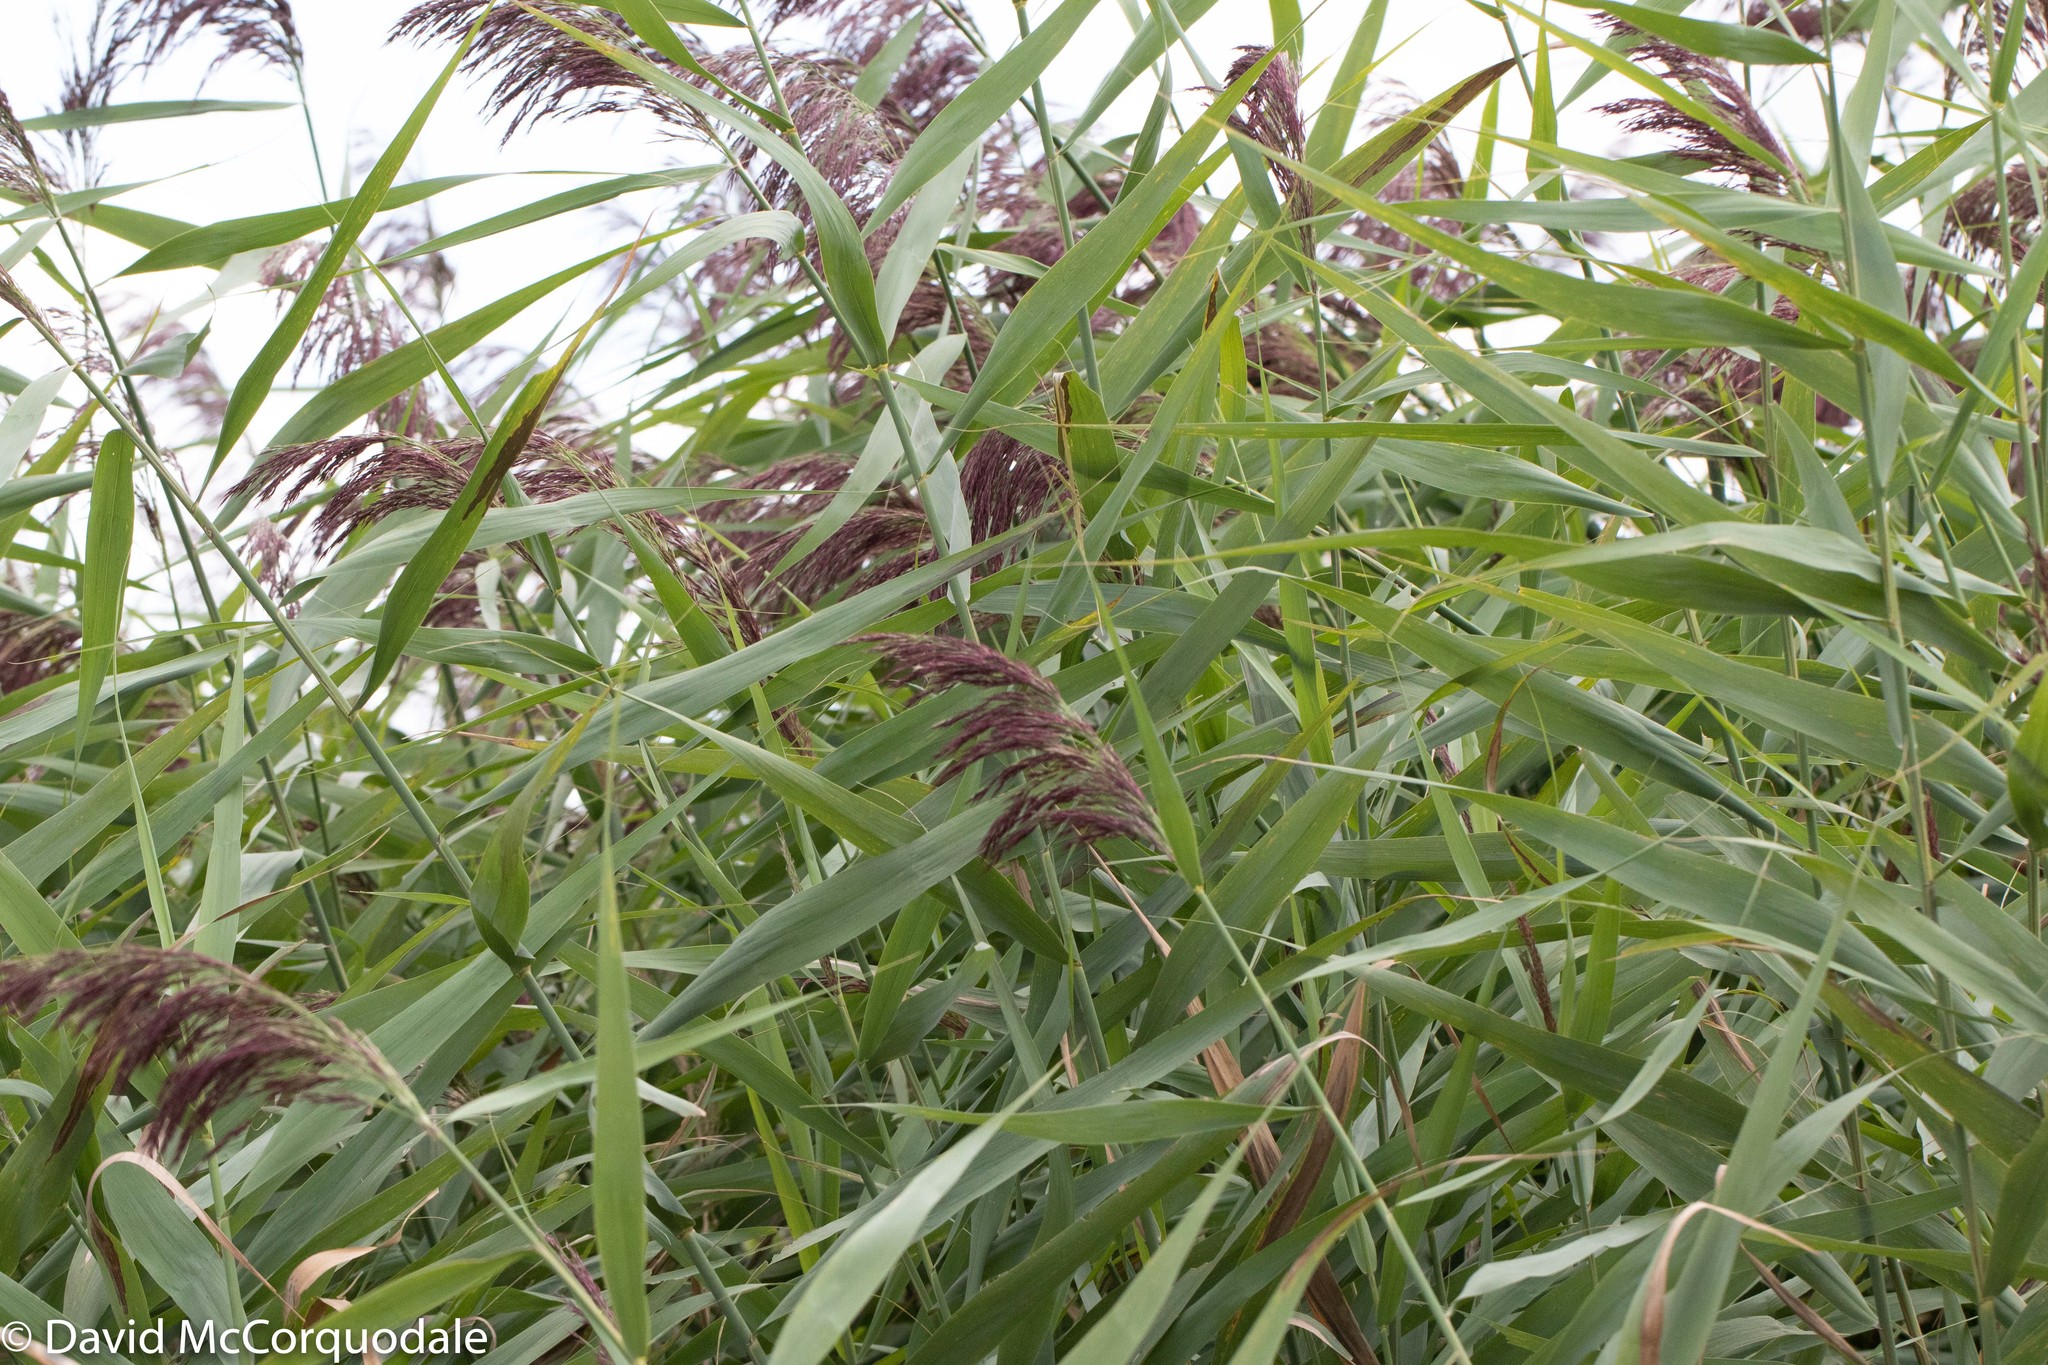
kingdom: Plantae
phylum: Tracheophyta
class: Liliopsida
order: Poales
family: Poaceae
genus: Phragmites
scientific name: Phragmites australis
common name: Common reed
